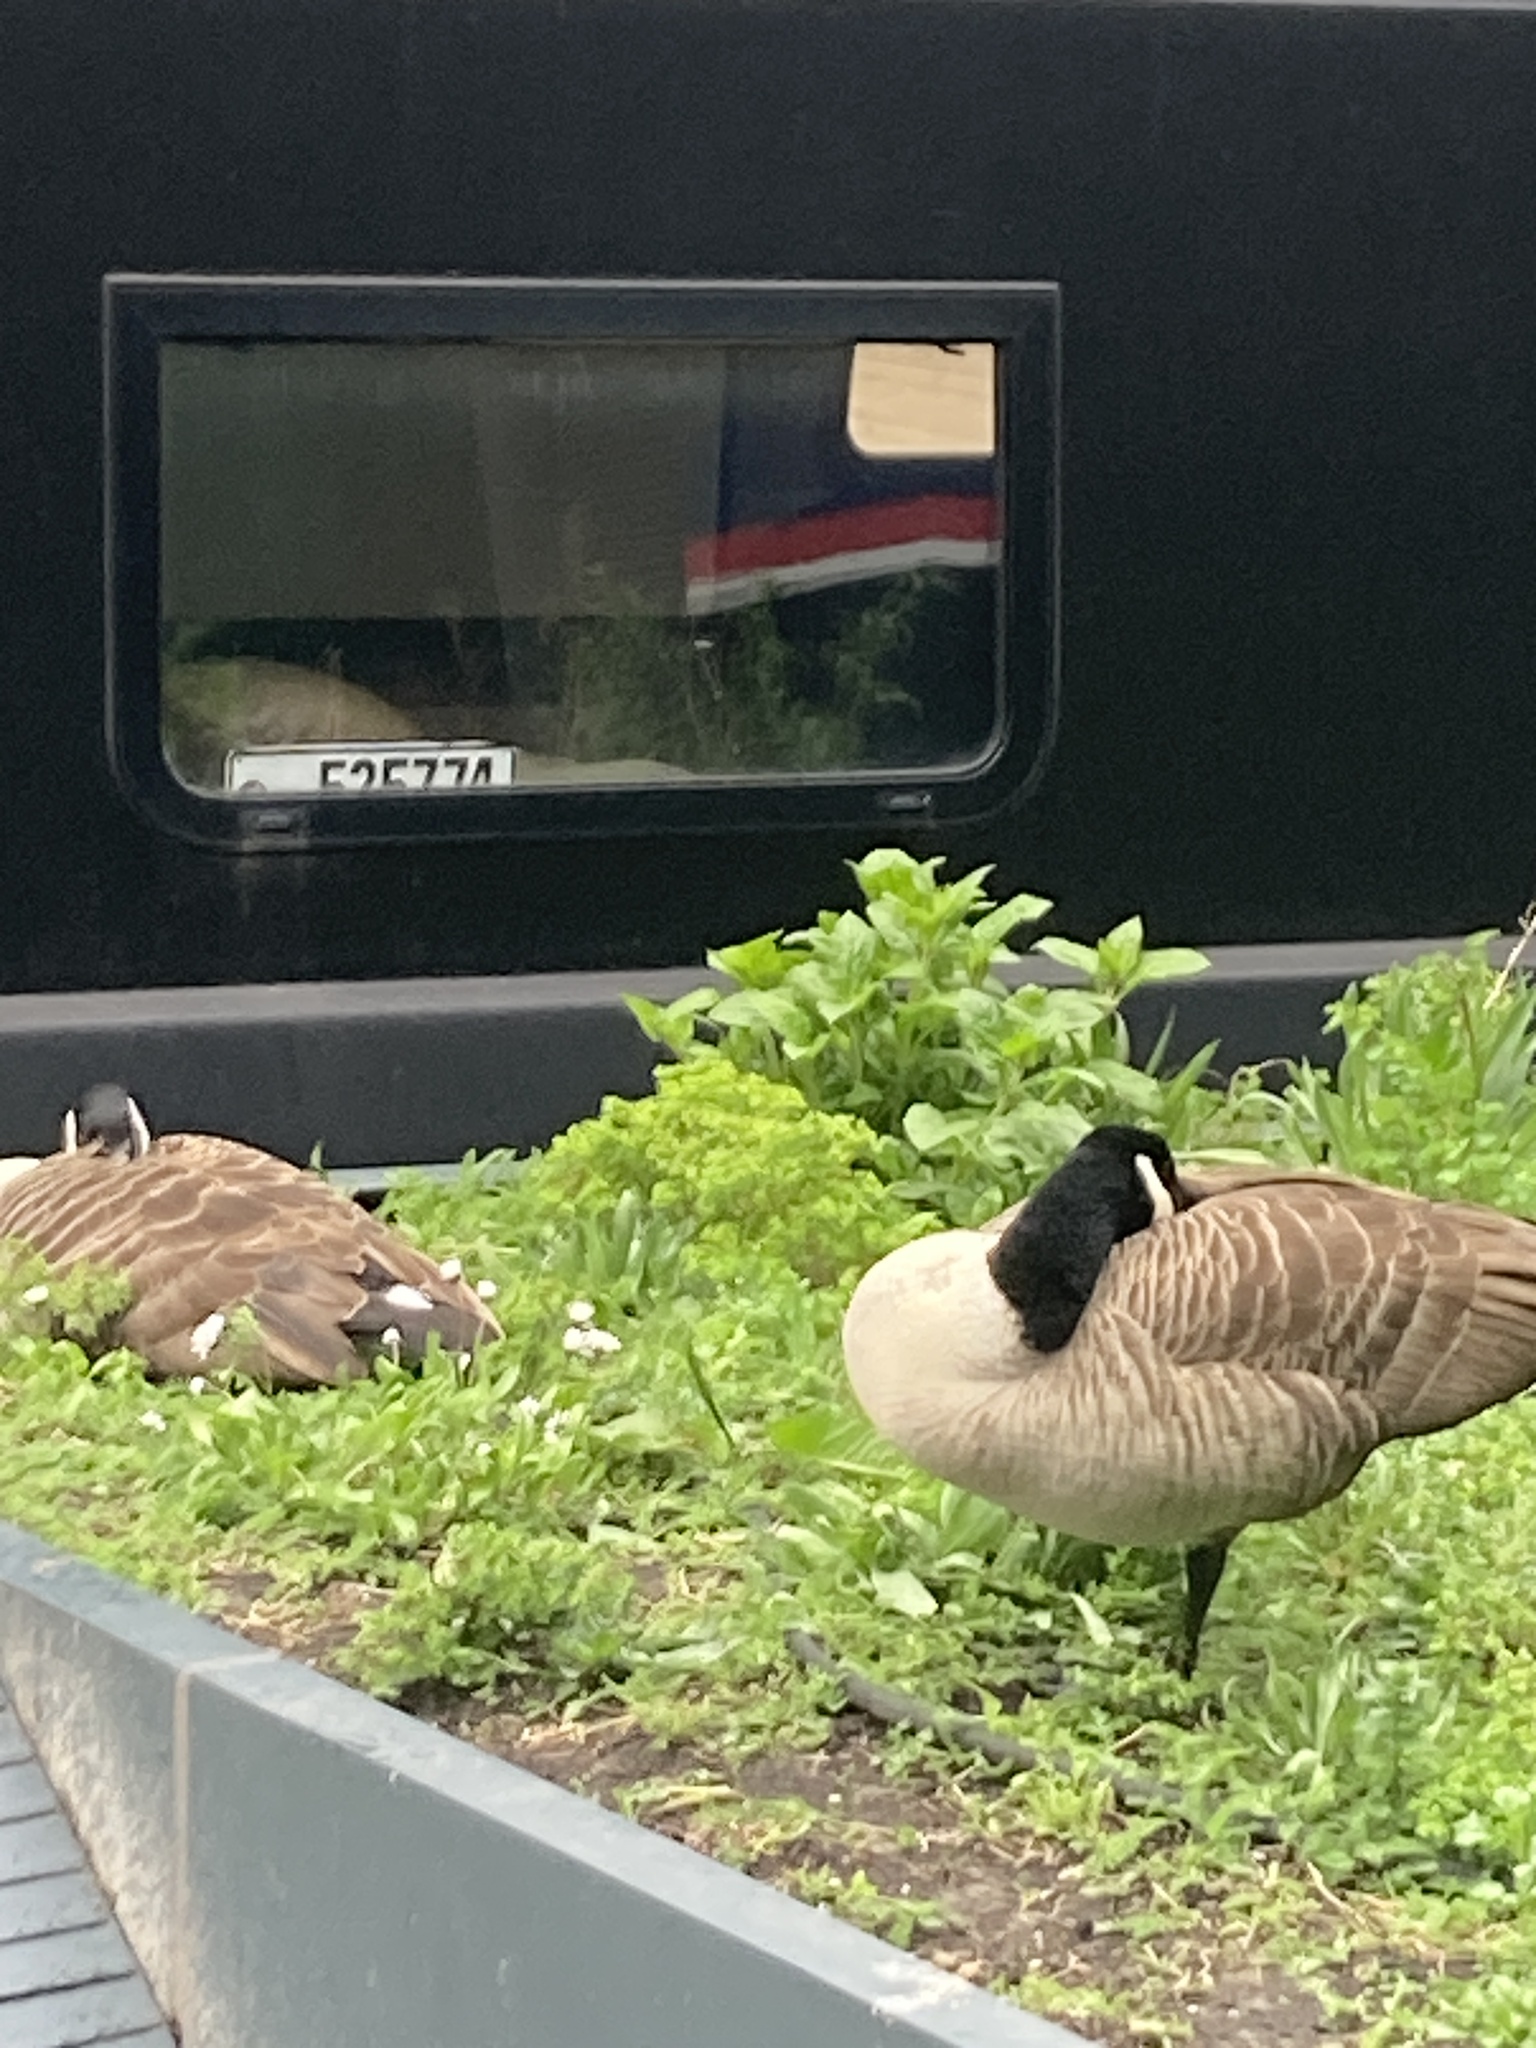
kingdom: Animalia
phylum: Chordata
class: Aves
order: Anseriformes
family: Anatidae
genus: Branta
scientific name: Branta canadensis
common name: Canada goose
